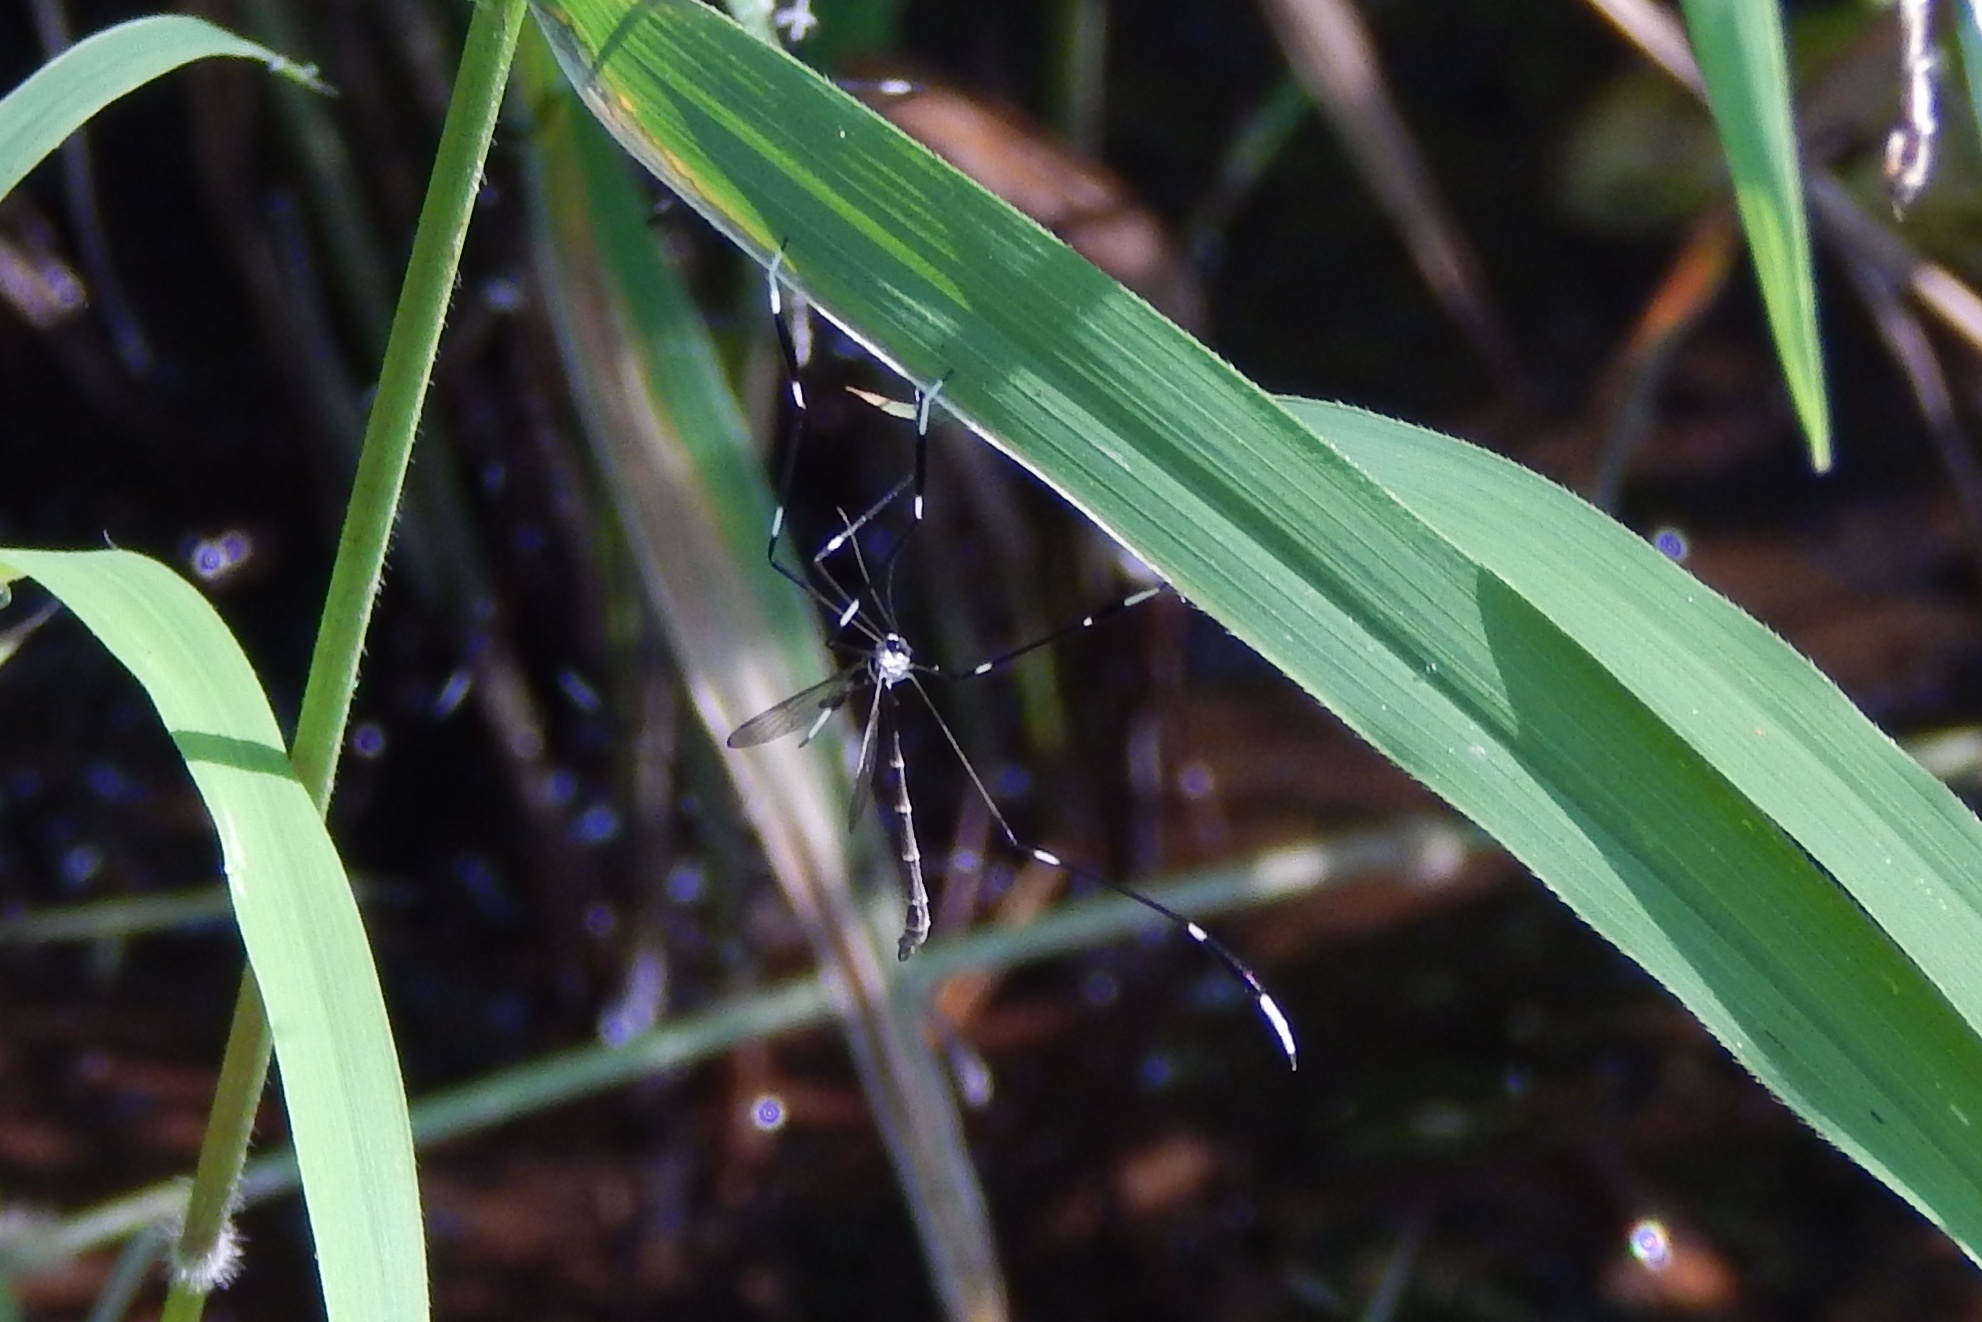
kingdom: Animalia
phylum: Arthropoda
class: Insecta
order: Diptera
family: Ptychopteridae
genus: Bittacomorpha
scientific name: Bittacomorpha clavipes
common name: Eastern phantom crane fly
